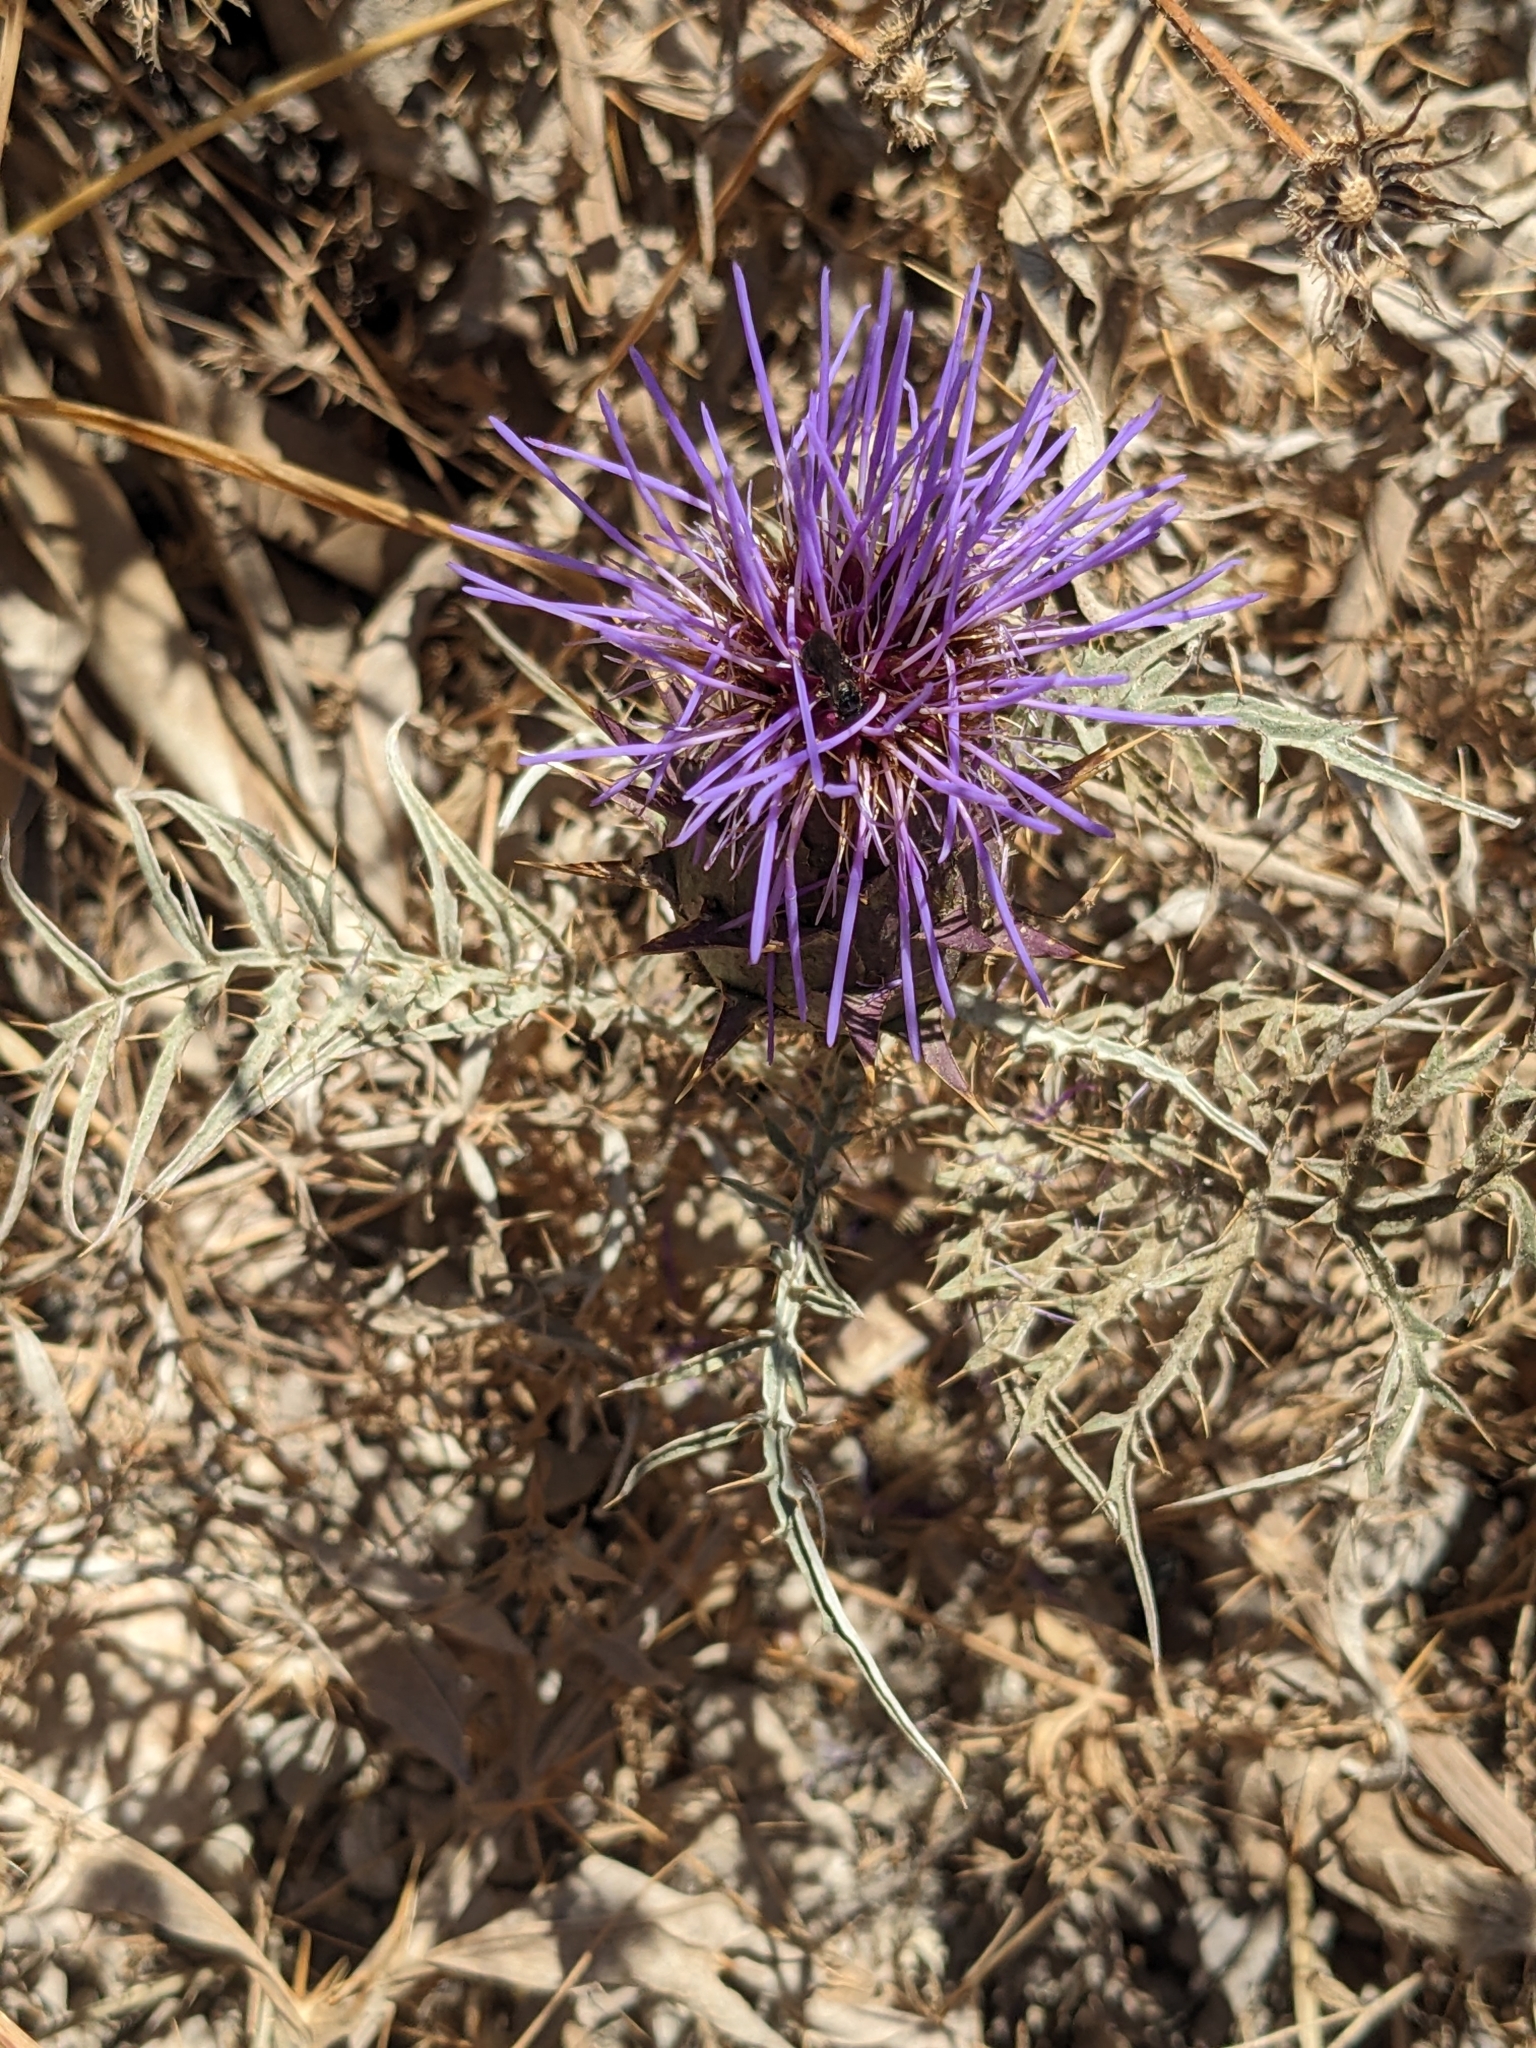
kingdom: Plantae
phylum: Tracheophyta
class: Magnoliopsida
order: Asterales
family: Asteraceae
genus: Cynara
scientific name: Cynara cardunculus
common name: Globe artichoke
